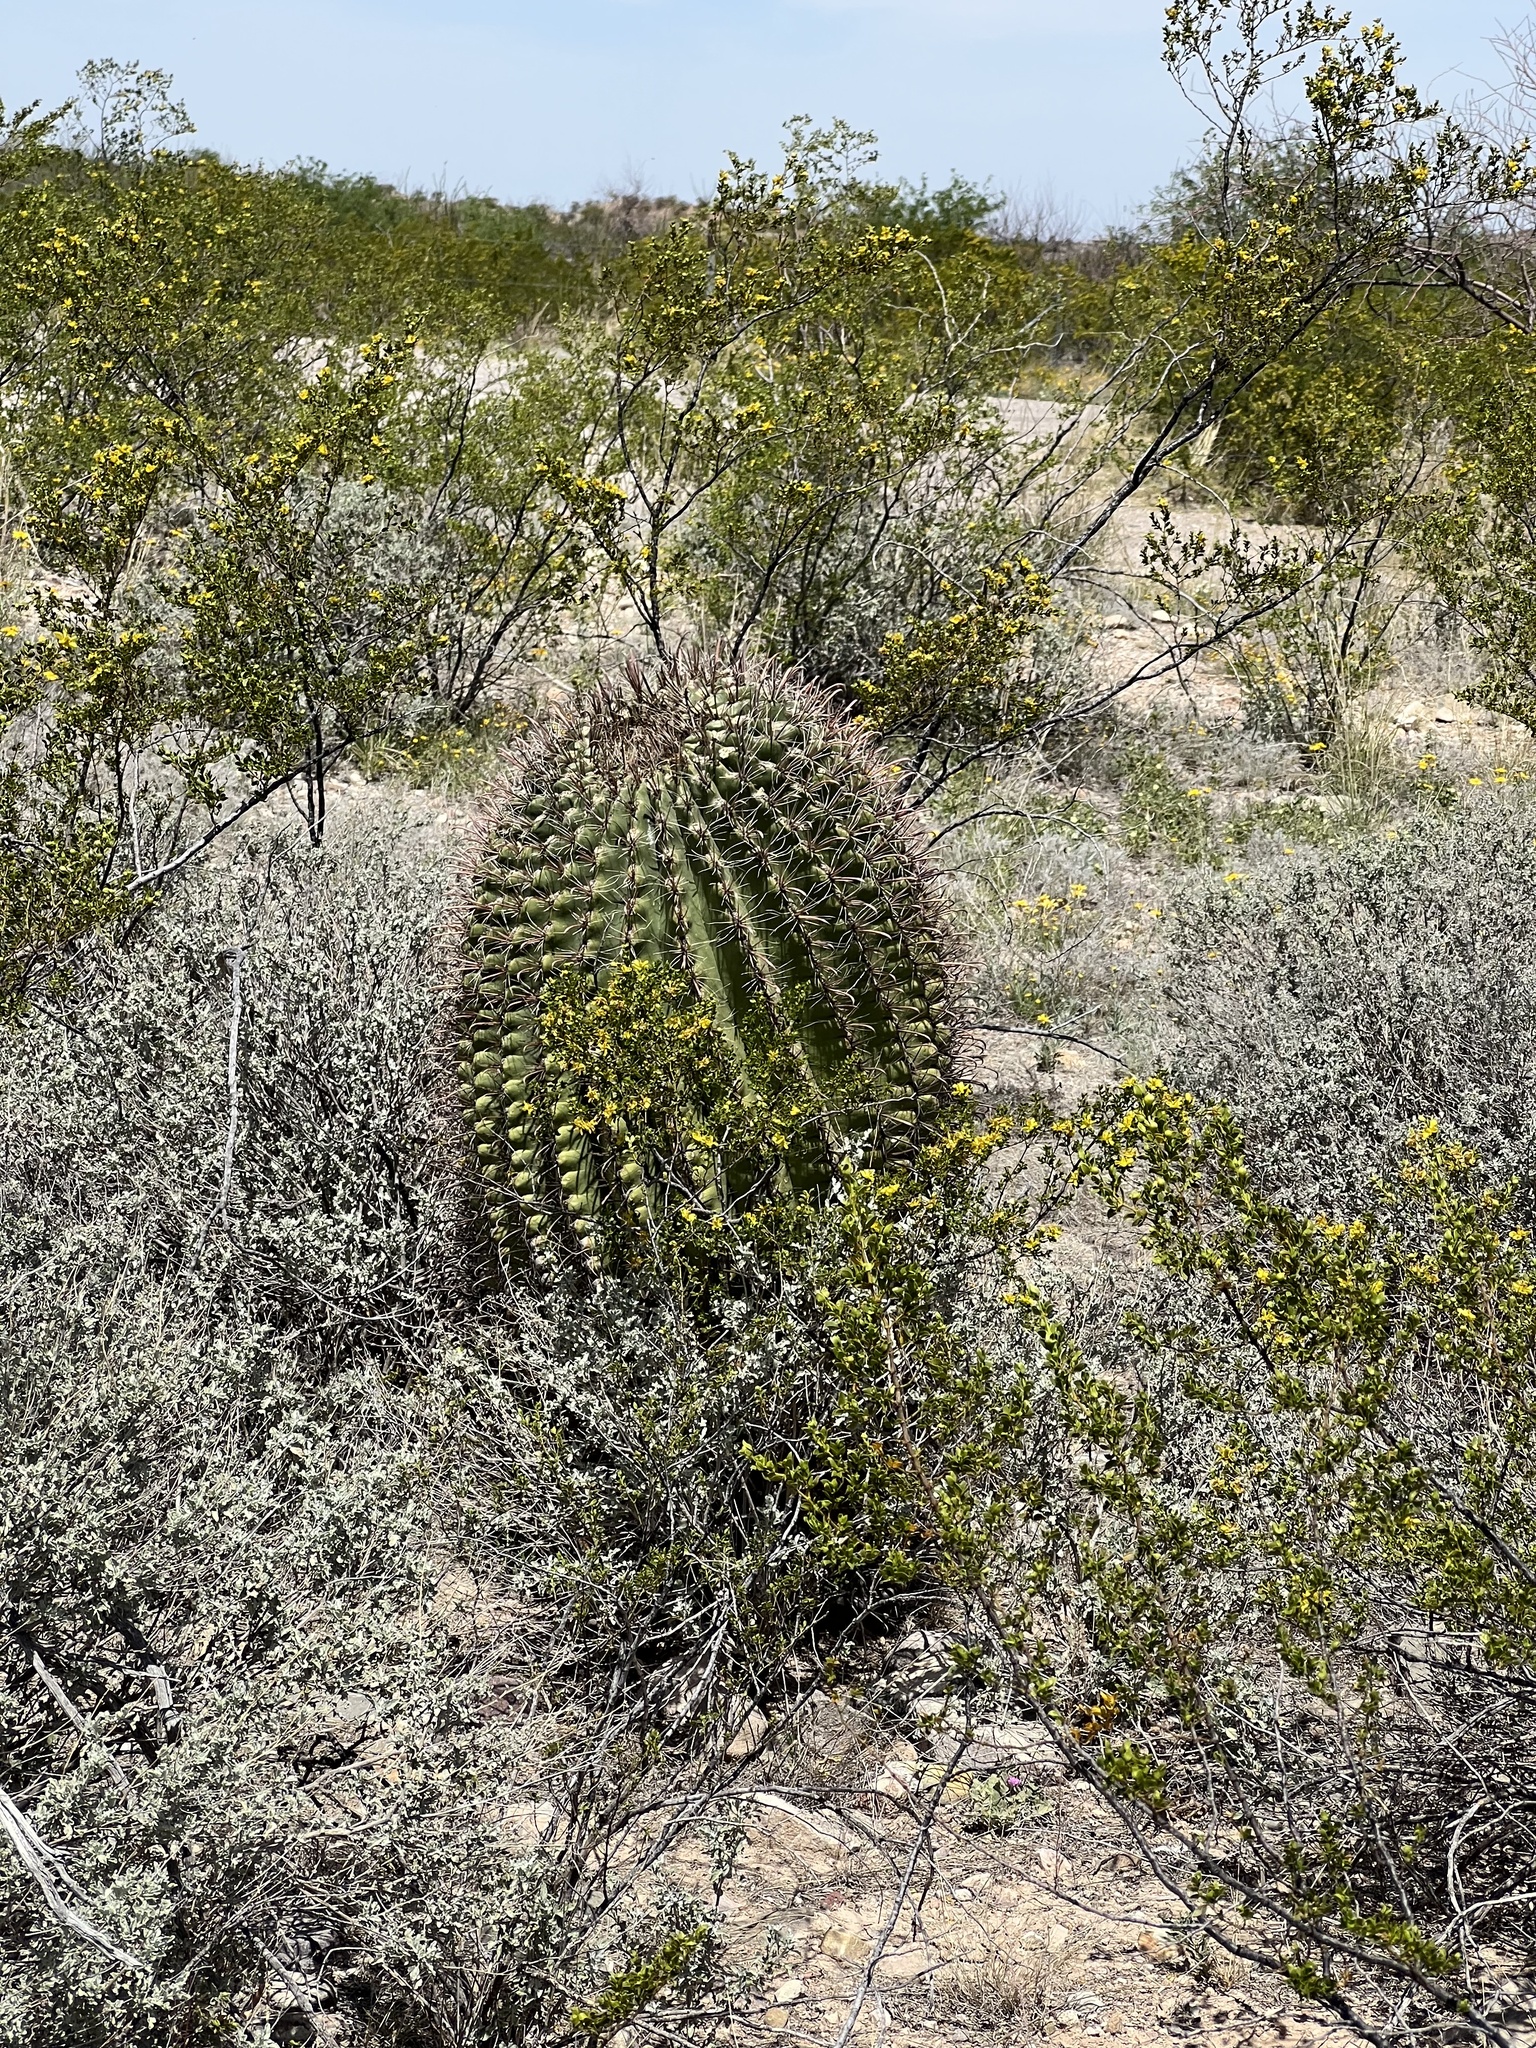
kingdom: Plantae
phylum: Tracheophyta
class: Magnoliopsida
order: Caryophyllales
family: Cactaceae
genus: Ferocactus
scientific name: Ferocactus wislizeni
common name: Candy barrel cactus
